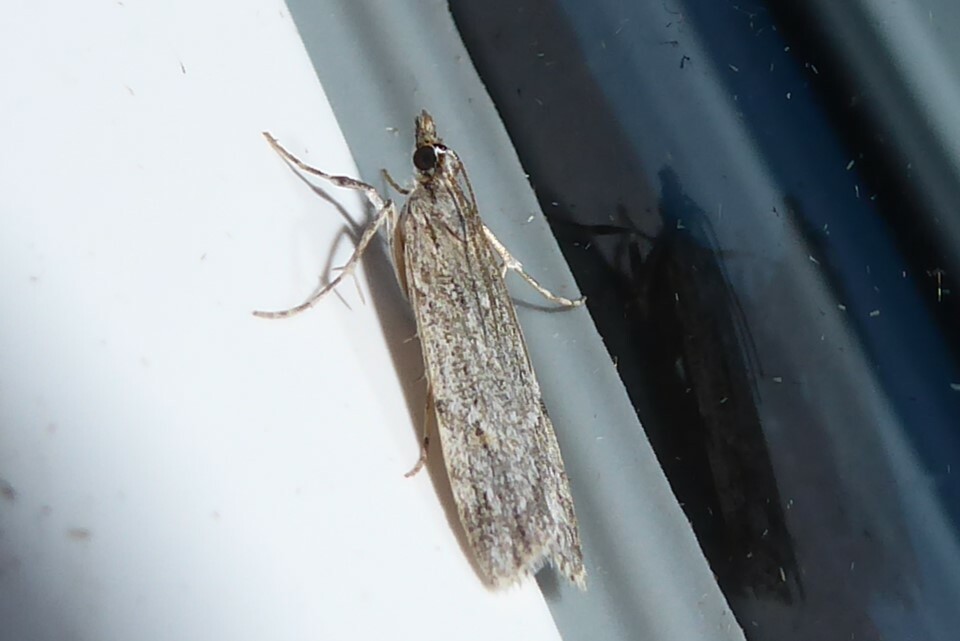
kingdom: Animalia
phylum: Arthropoda
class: Insecta
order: Lepidoptera
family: Crambidae
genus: Scoparia
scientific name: Scoparia chalicodes
